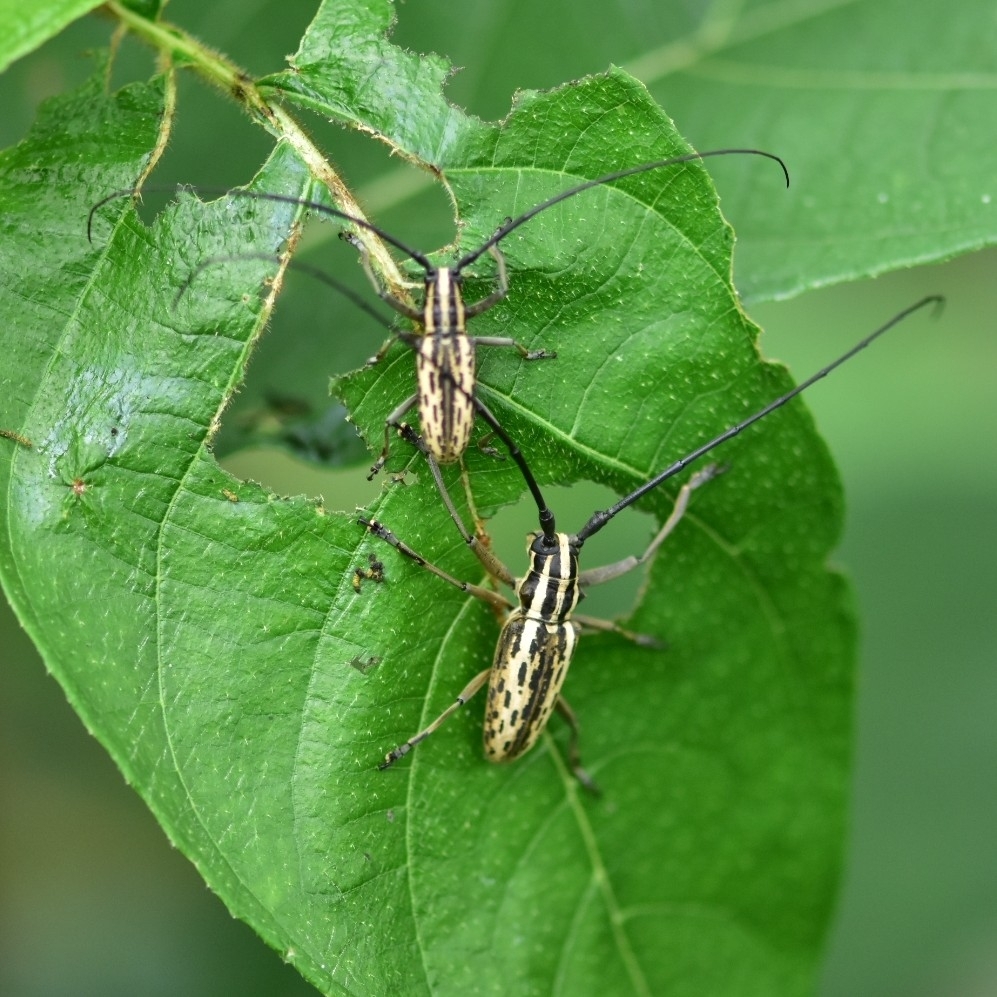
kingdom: Animalia
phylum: Arthropoda
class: Insecta
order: Coleoptera
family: Cerambycidae
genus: Epepeotes
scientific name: Epepeotes uncinatus
